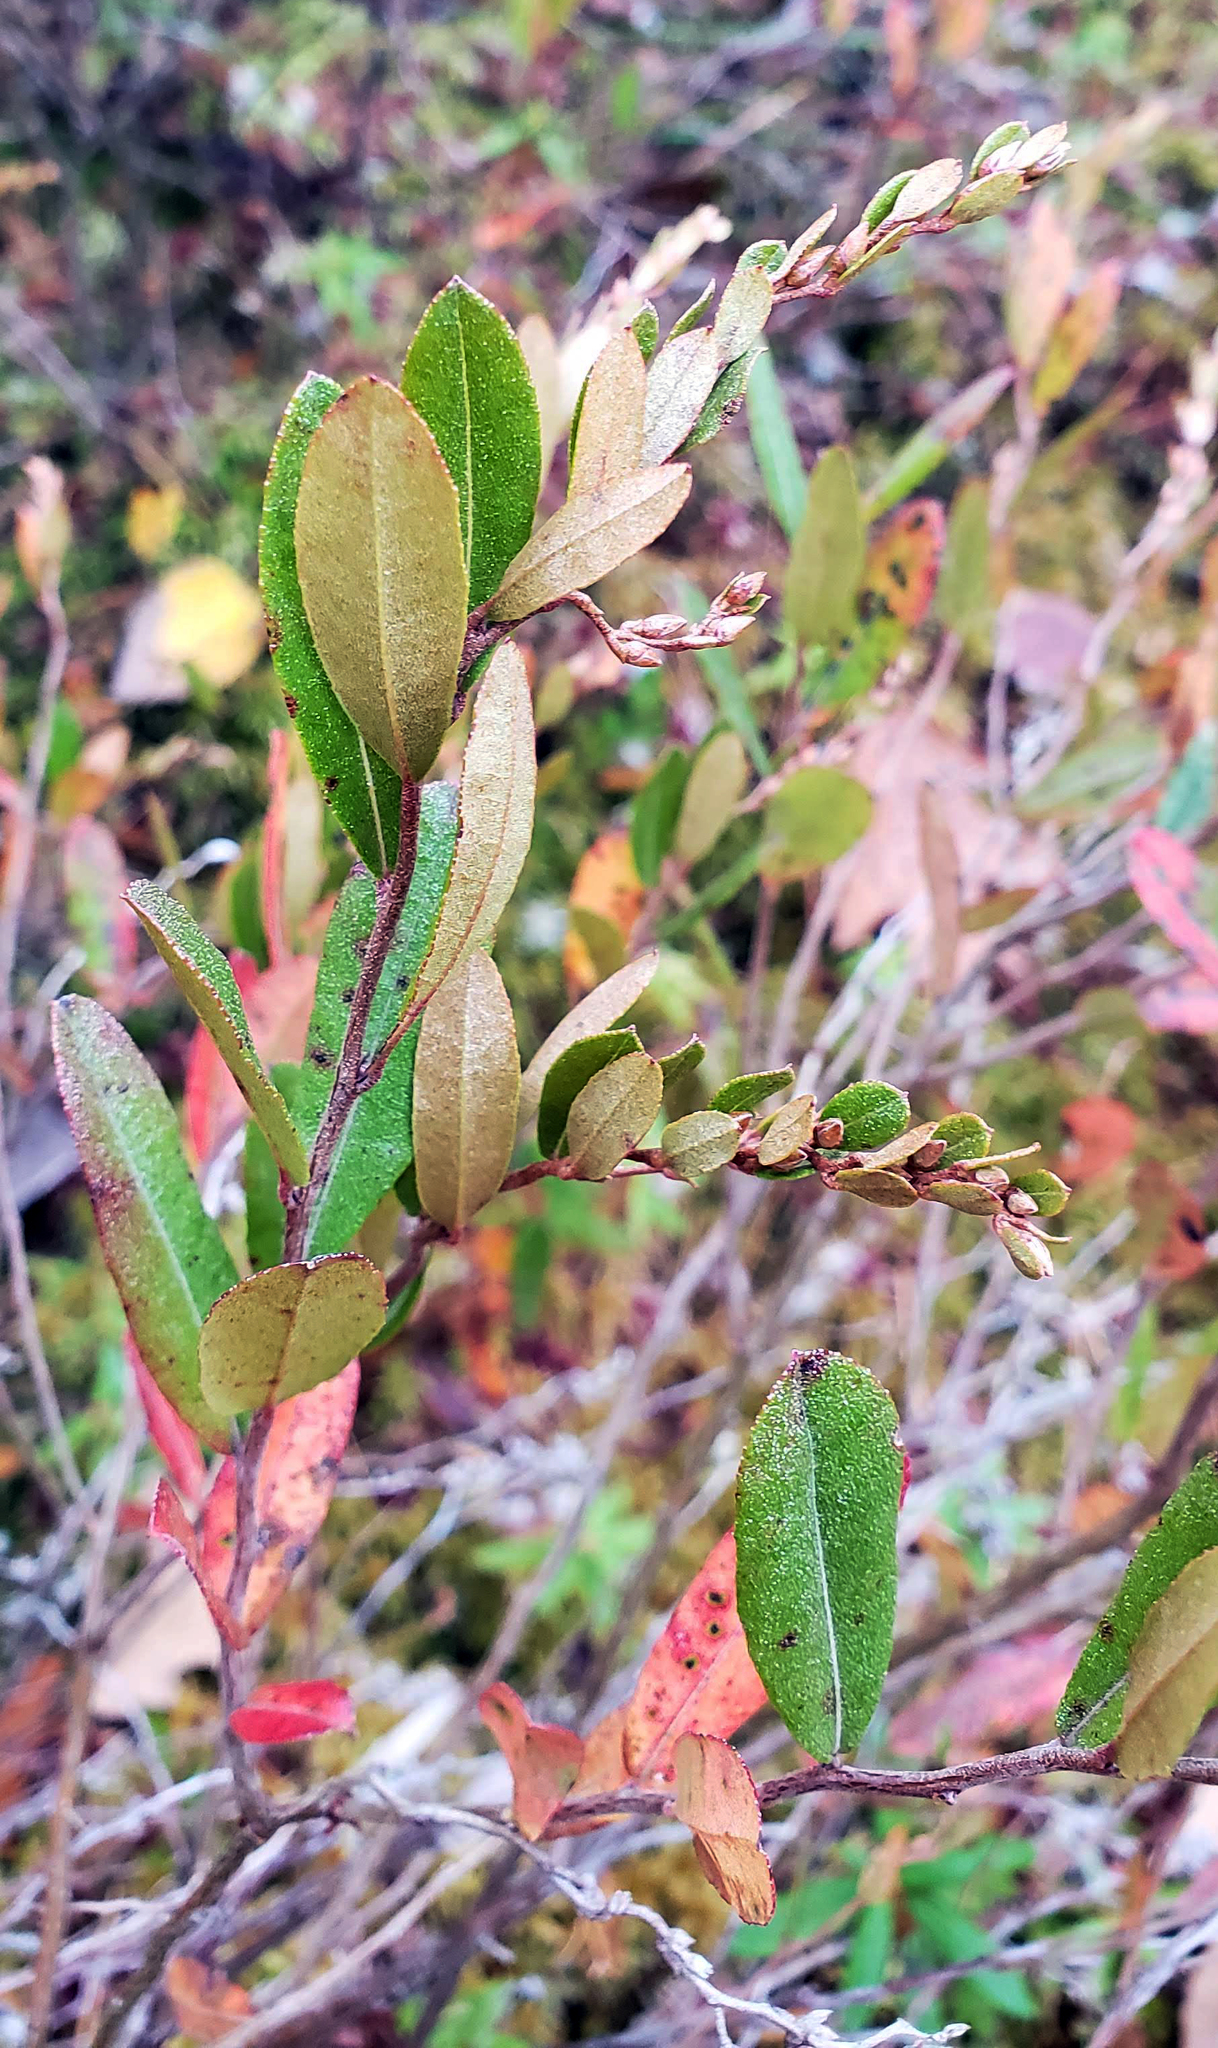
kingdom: Plantae
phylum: Tracheophyta
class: Magnoliopsida
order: Ericales
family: Ericaceae
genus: Chamaedaphne
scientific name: Chamaedaphne calyculata
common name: Leatherleaf
